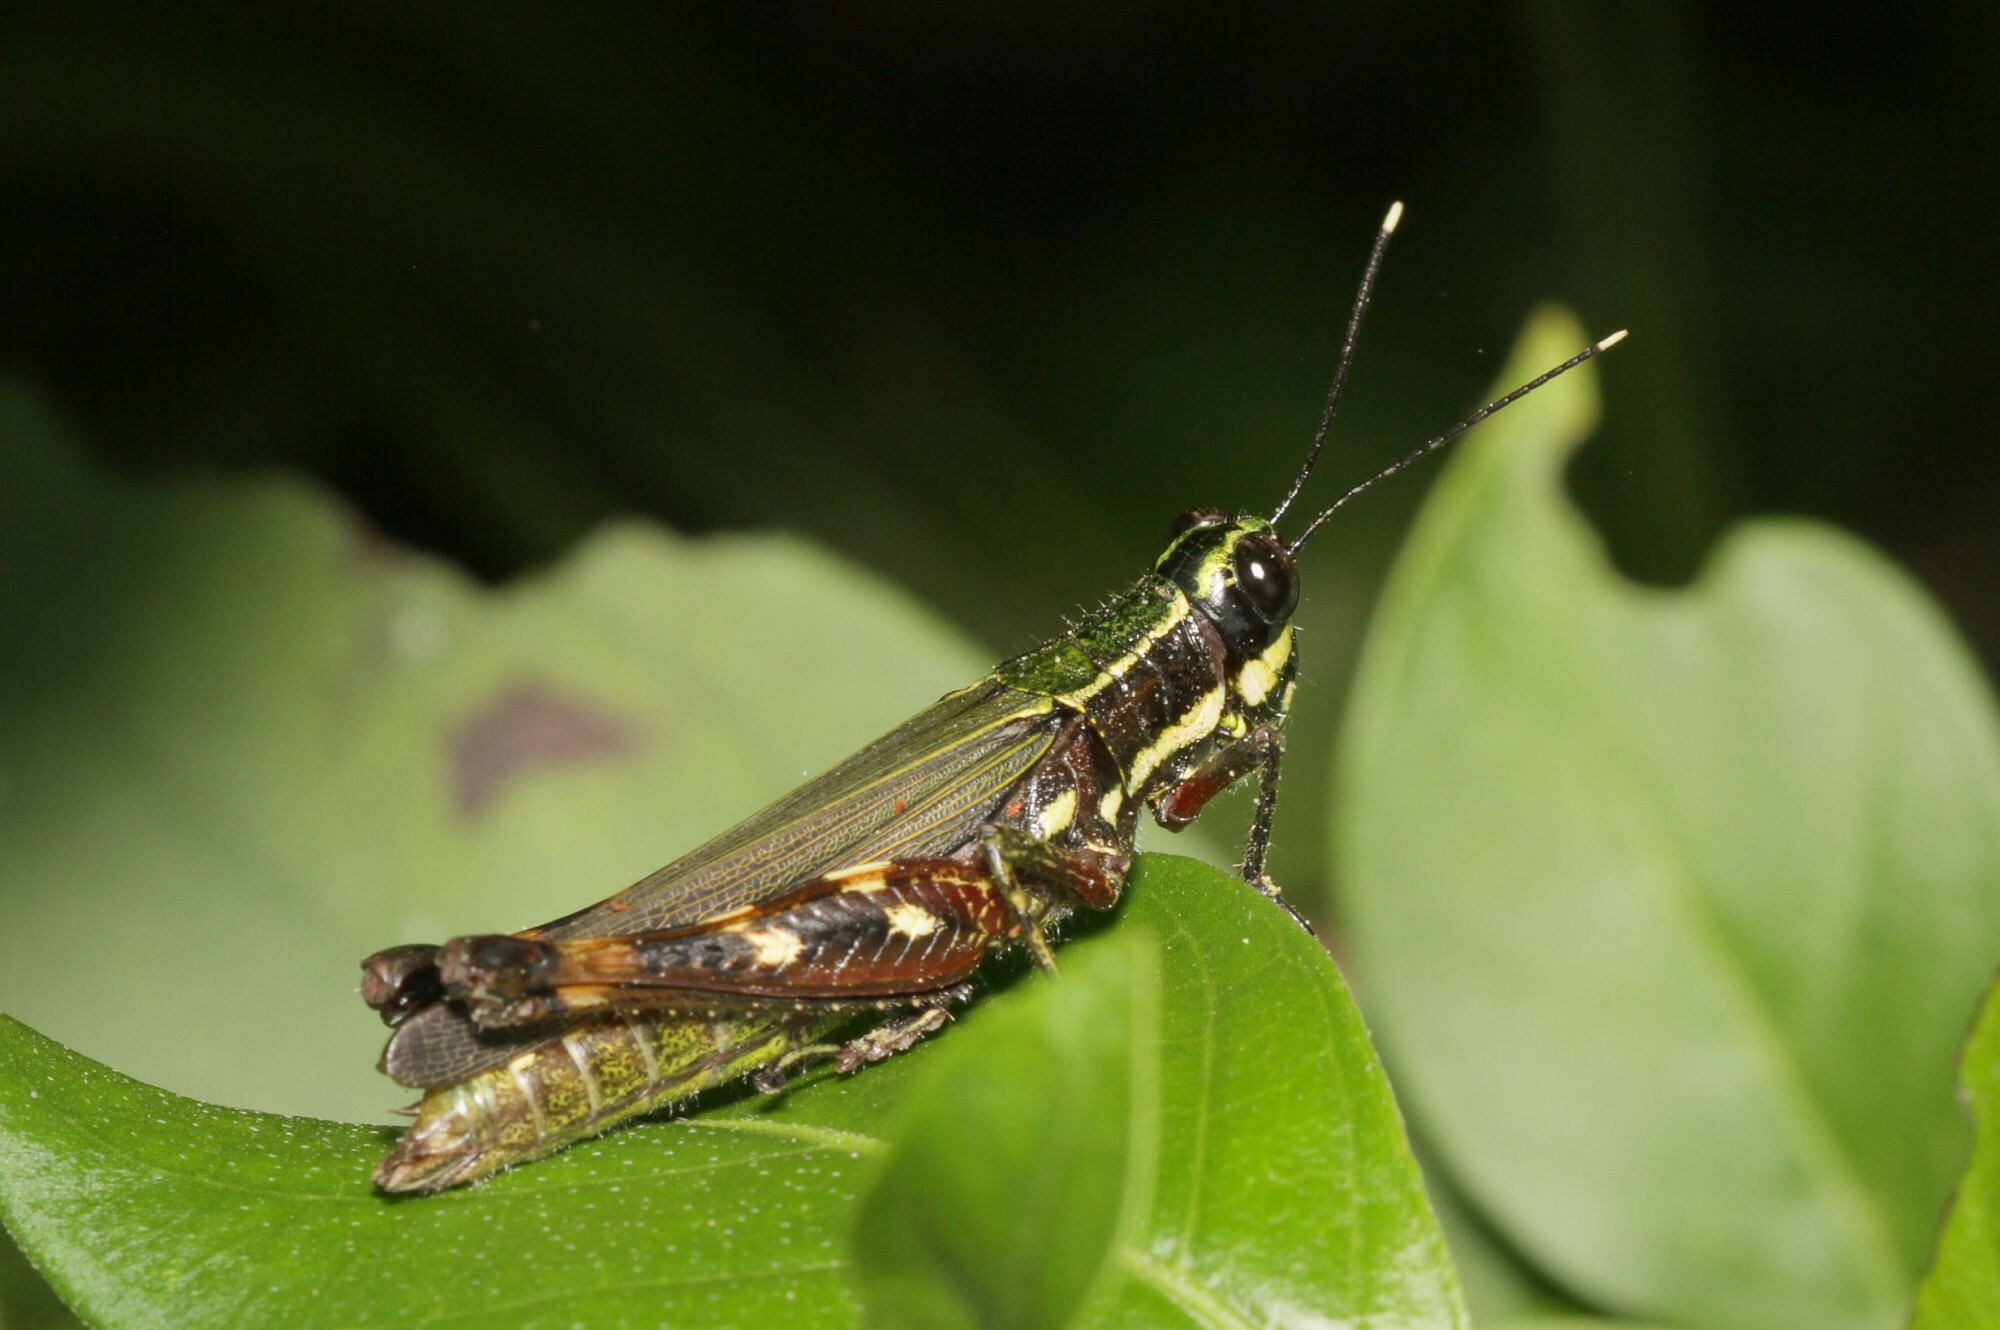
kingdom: Animalia
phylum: Arthropoda
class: Insecta
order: Orthoptera
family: Acrididae
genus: Tetrataenia
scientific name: Tetrataenia surinama
